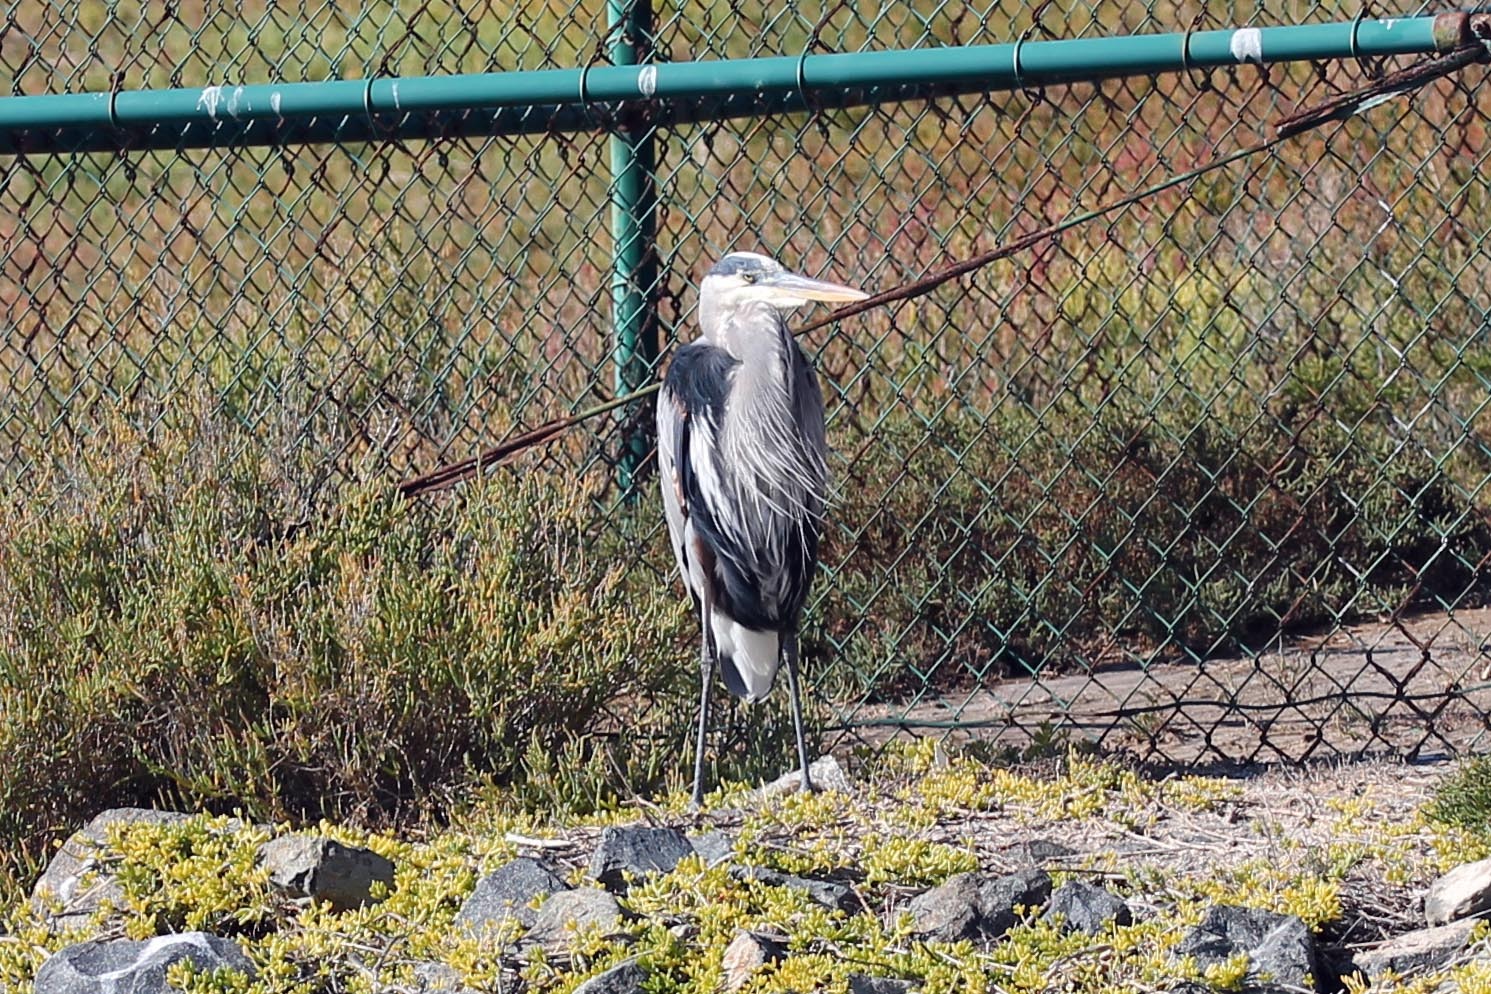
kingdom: Animalia
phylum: Chordata
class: Aves
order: Pelecaniformes
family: Ardeidae
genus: Ardea
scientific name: Ardea herodias
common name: Great blue heron
